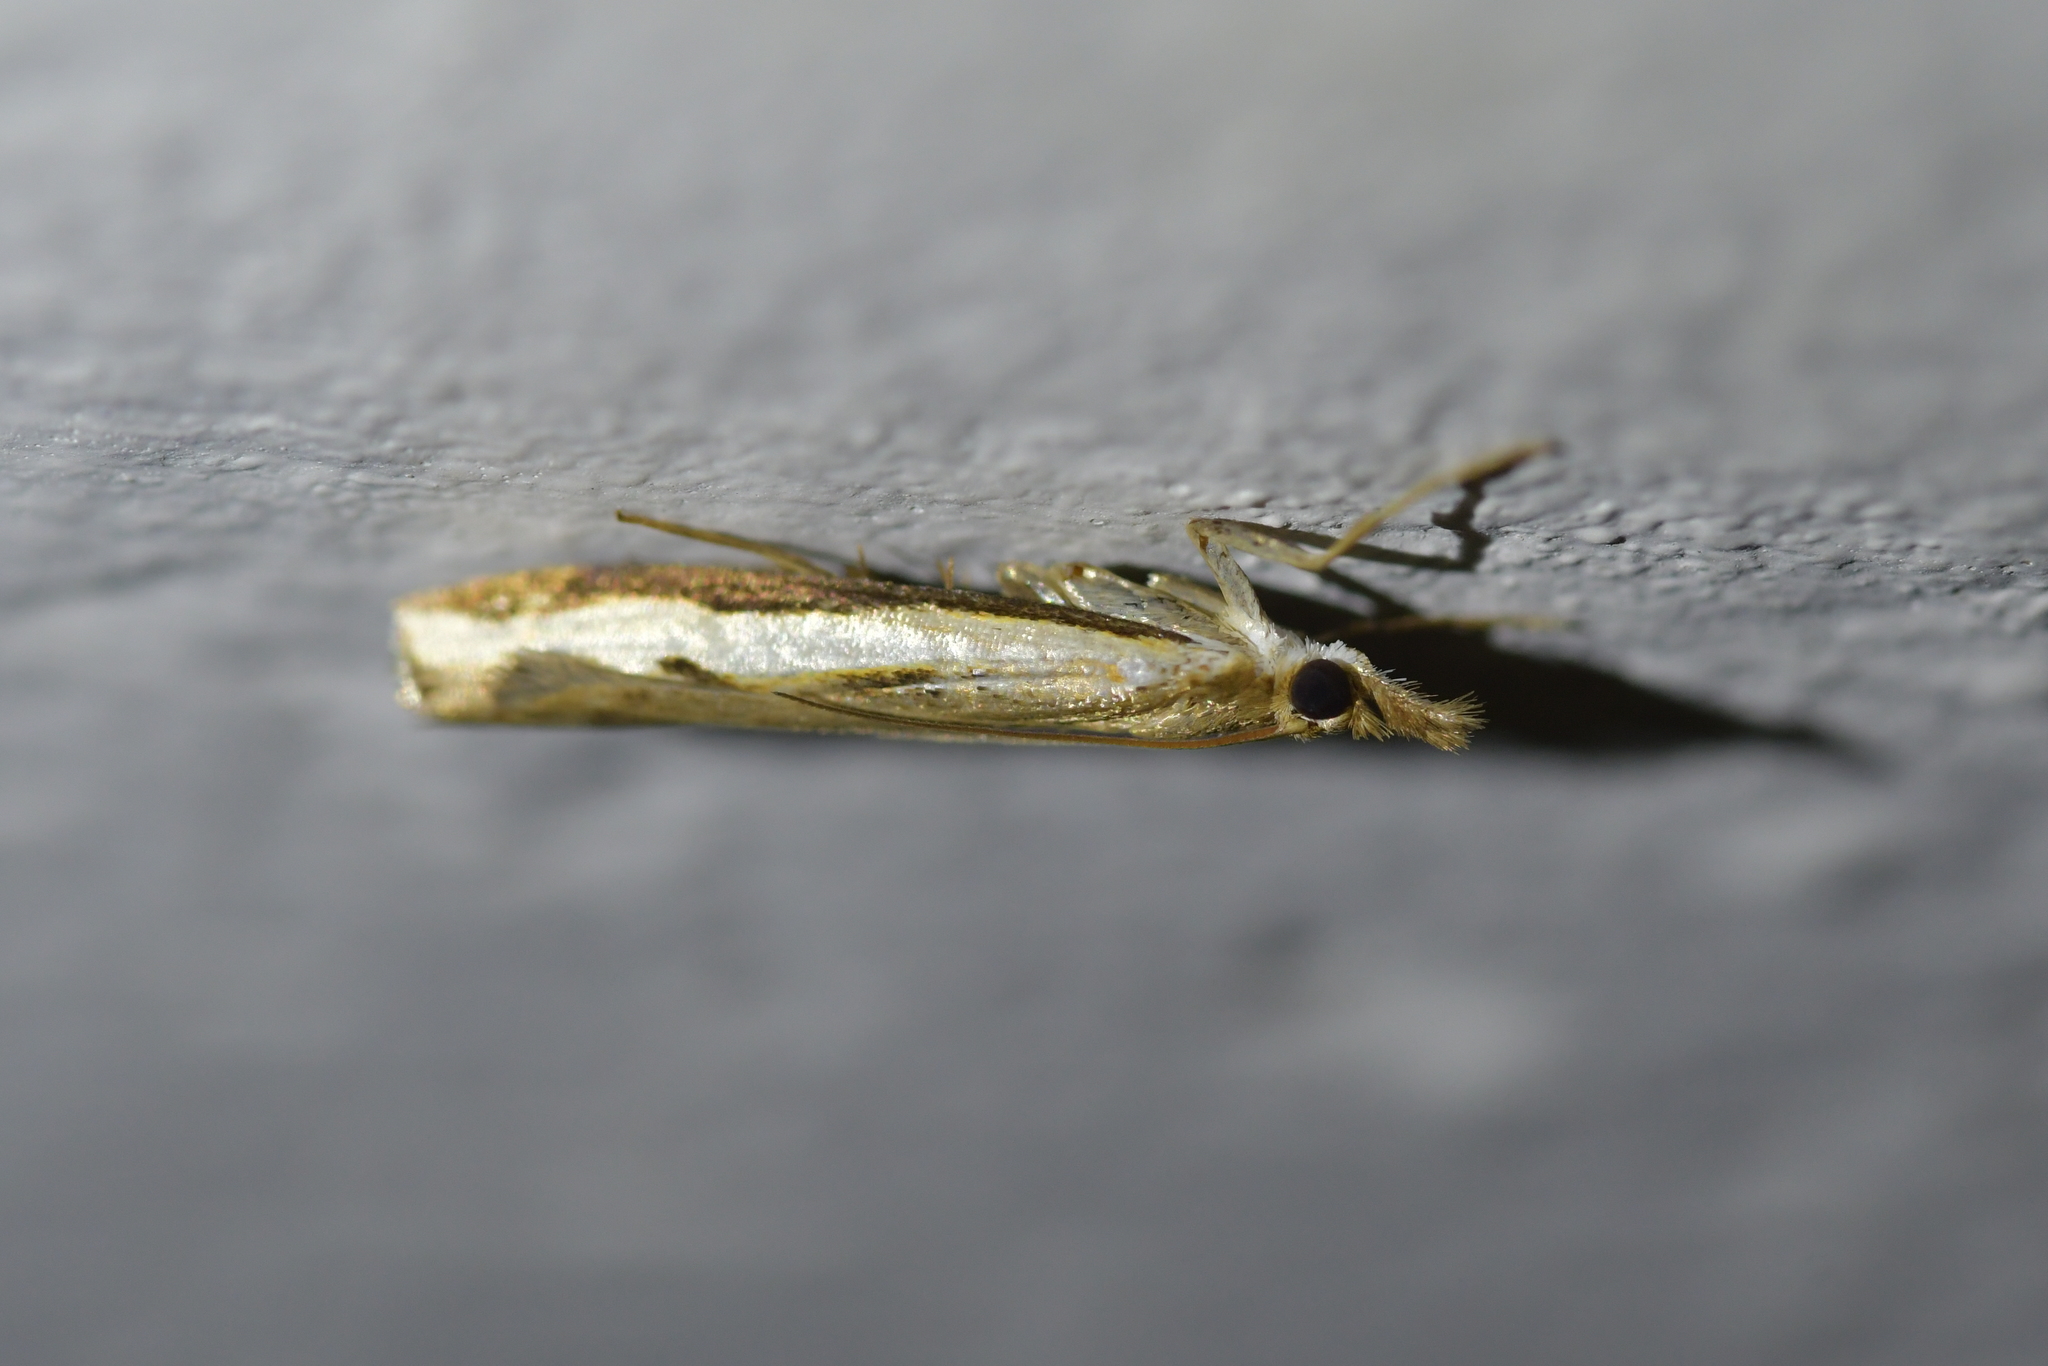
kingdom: Animalia
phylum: Arthropoda
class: Insecta
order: Lepidoptera
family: Crambidae
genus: Orocrambus
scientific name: Orocrambus flexuosellus
